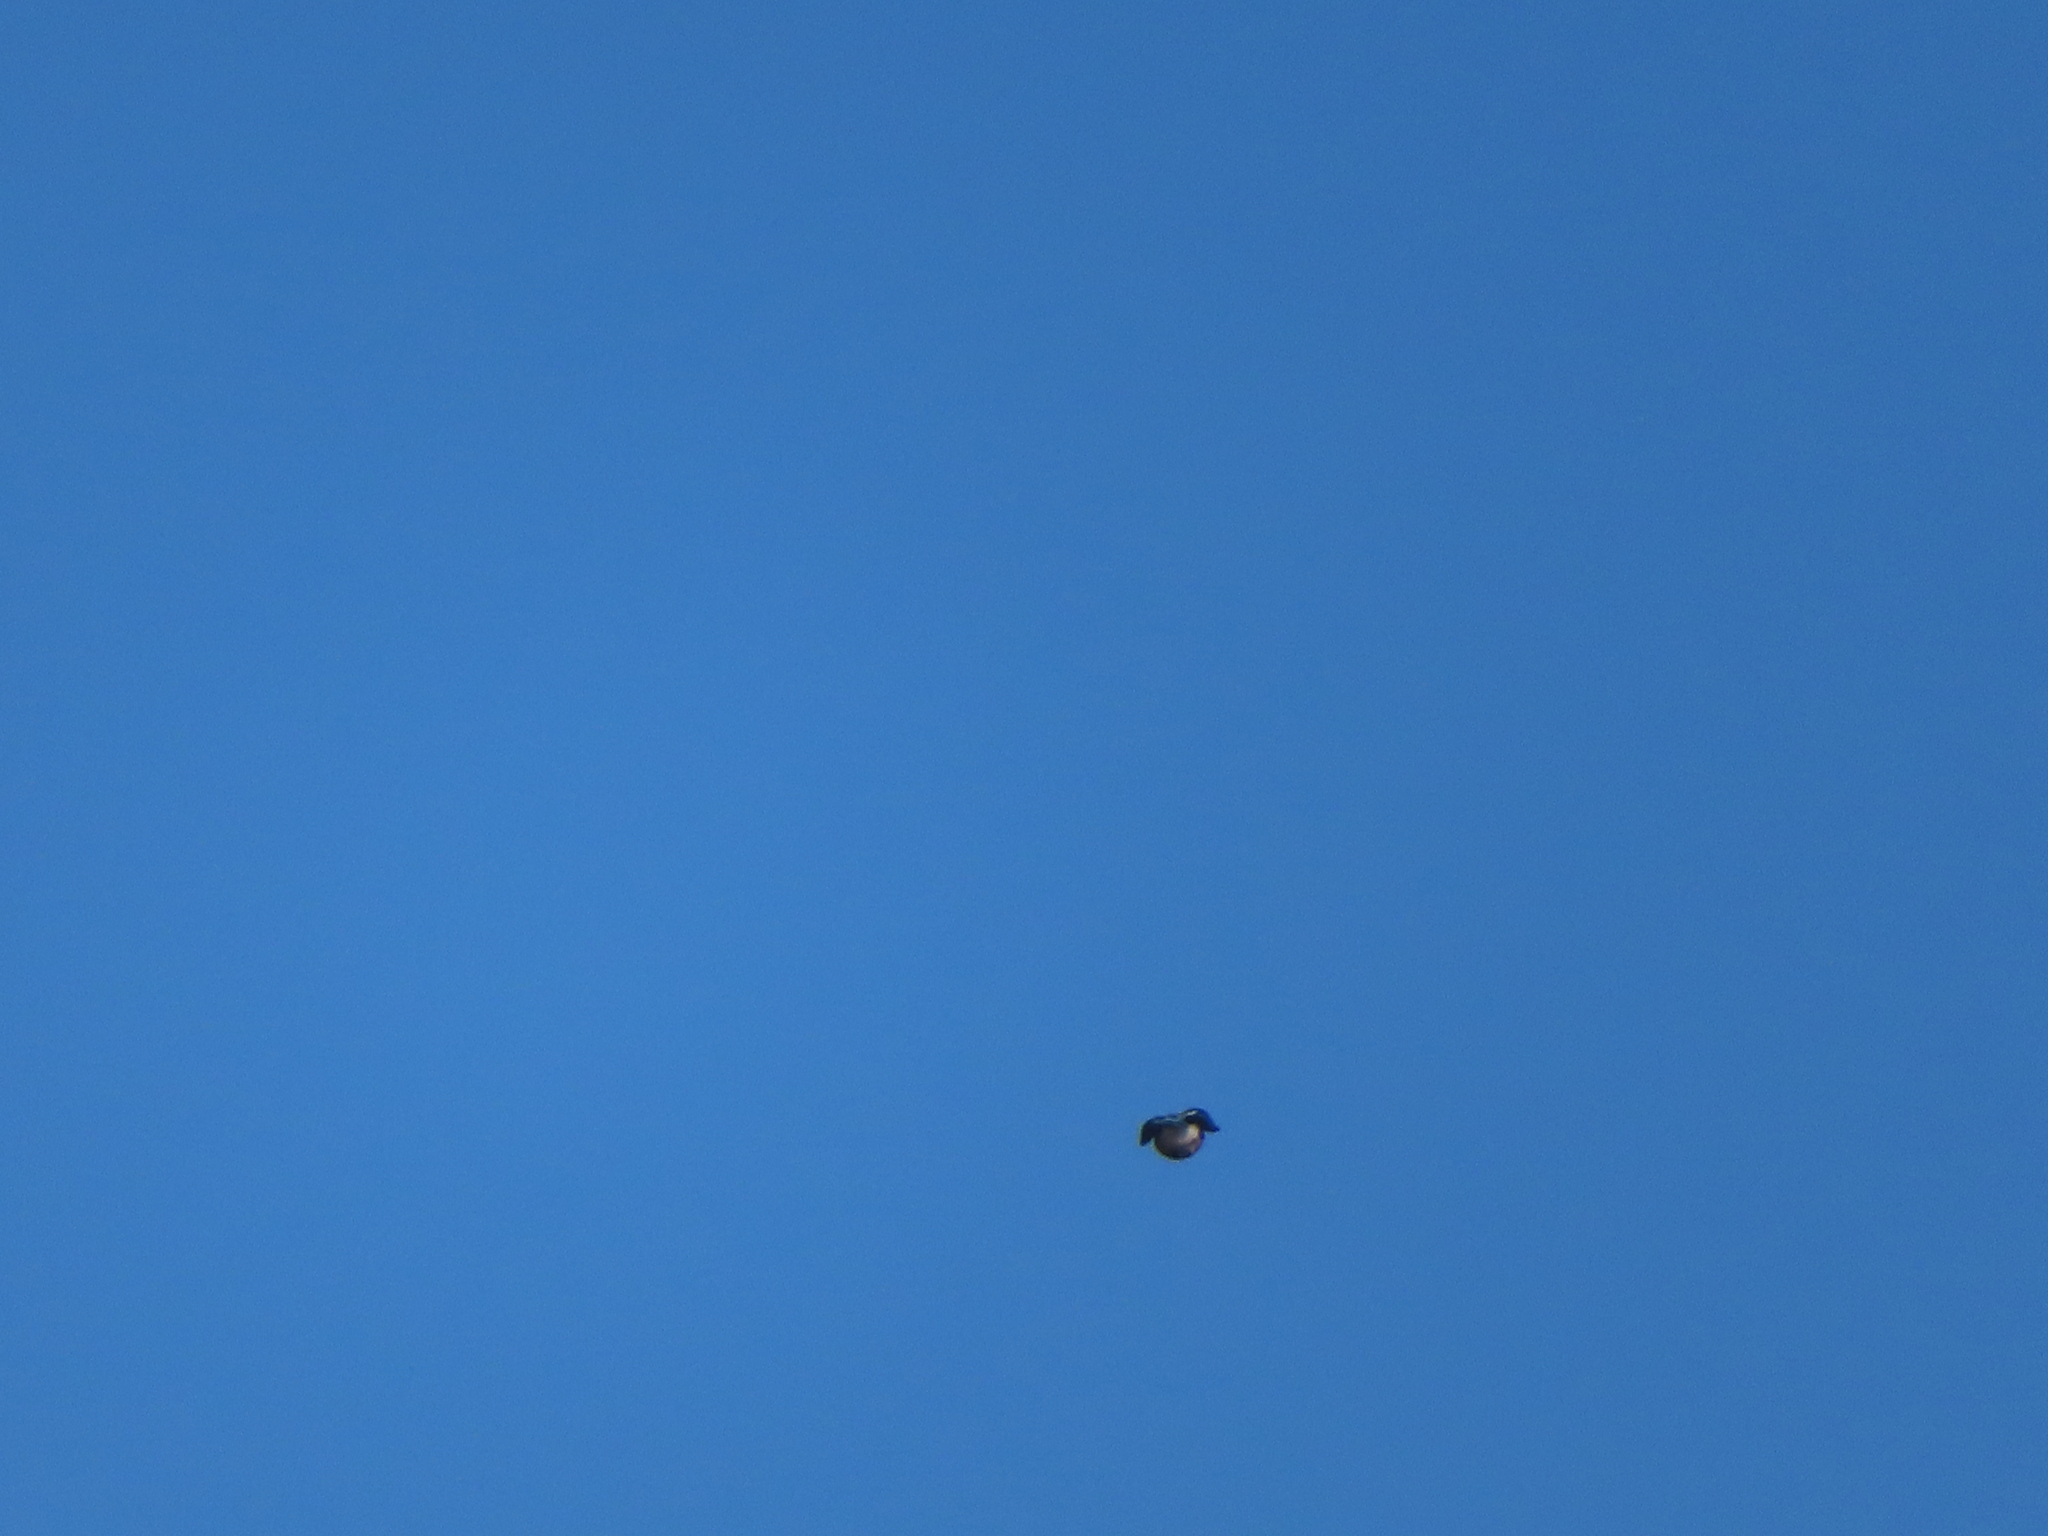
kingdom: Animalia
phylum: Chordata
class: Aves
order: Passeriformes
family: Corvidae
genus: Cyanocitta
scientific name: Cyanocitta cristata
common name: Blue jay
